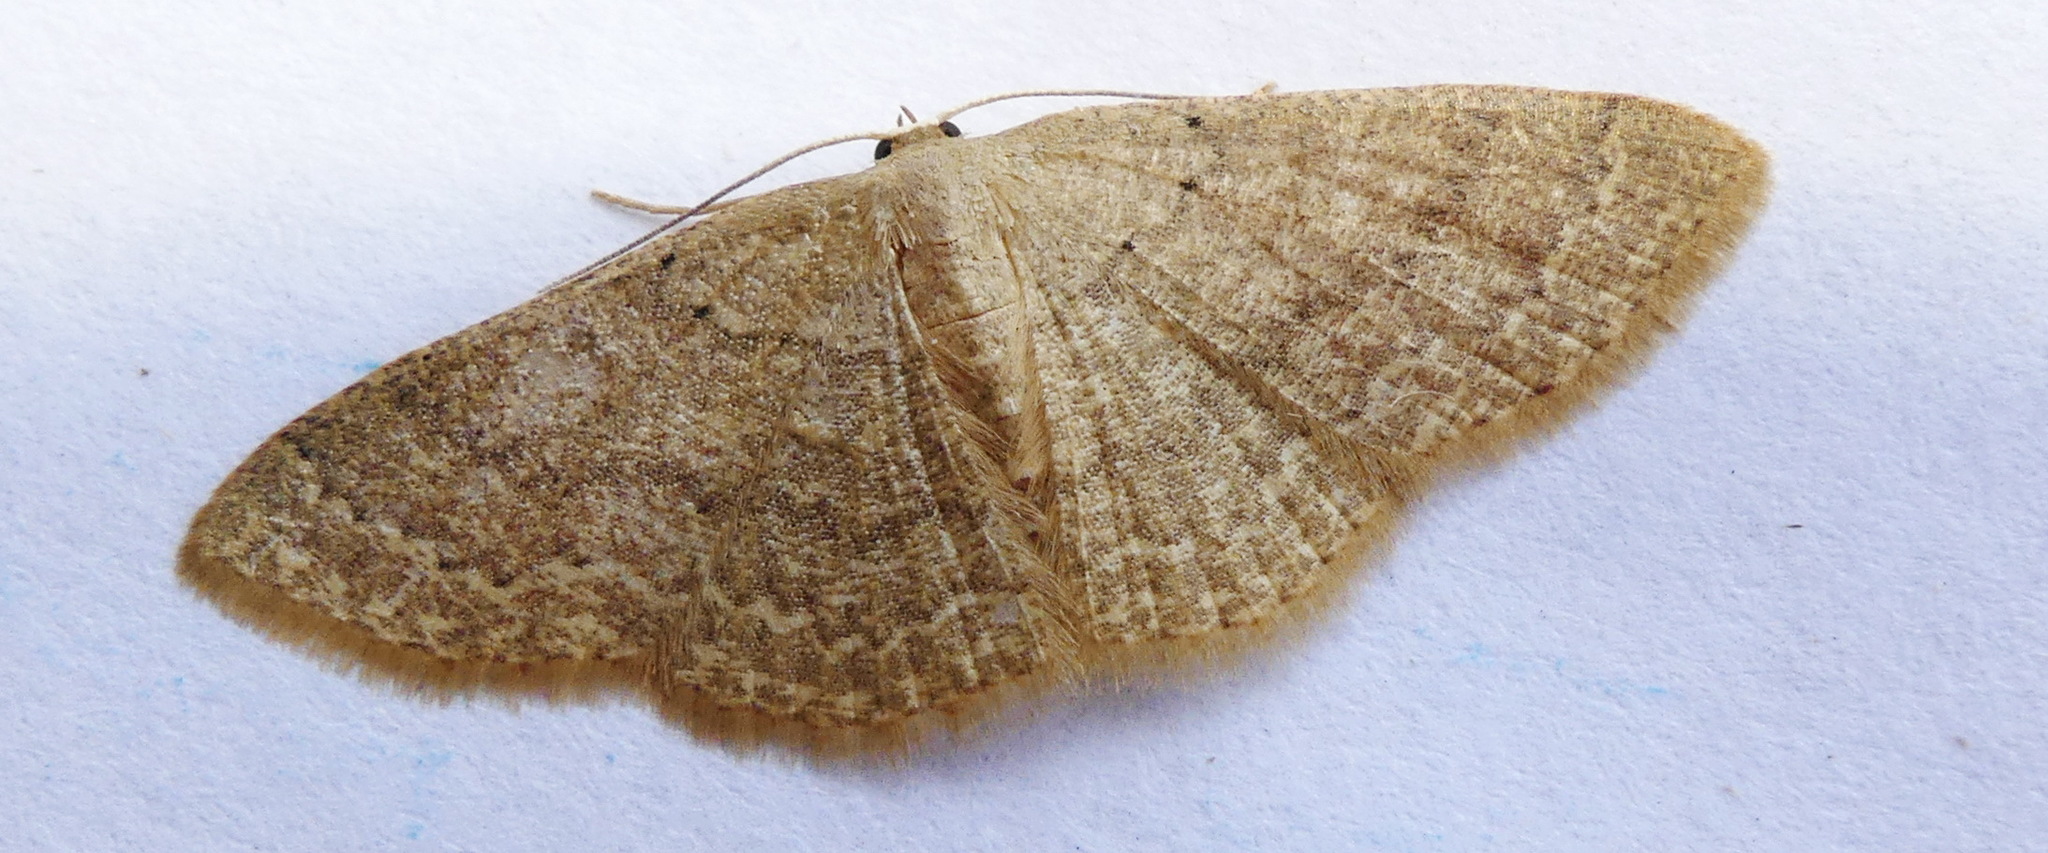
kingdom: Animalia
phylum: Arthropoda
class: Insecta
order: Lepidoptera
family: Geometridae
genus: Pleuroprucha
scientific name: Pleuroprucha insulsaria
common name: Common tan wave
